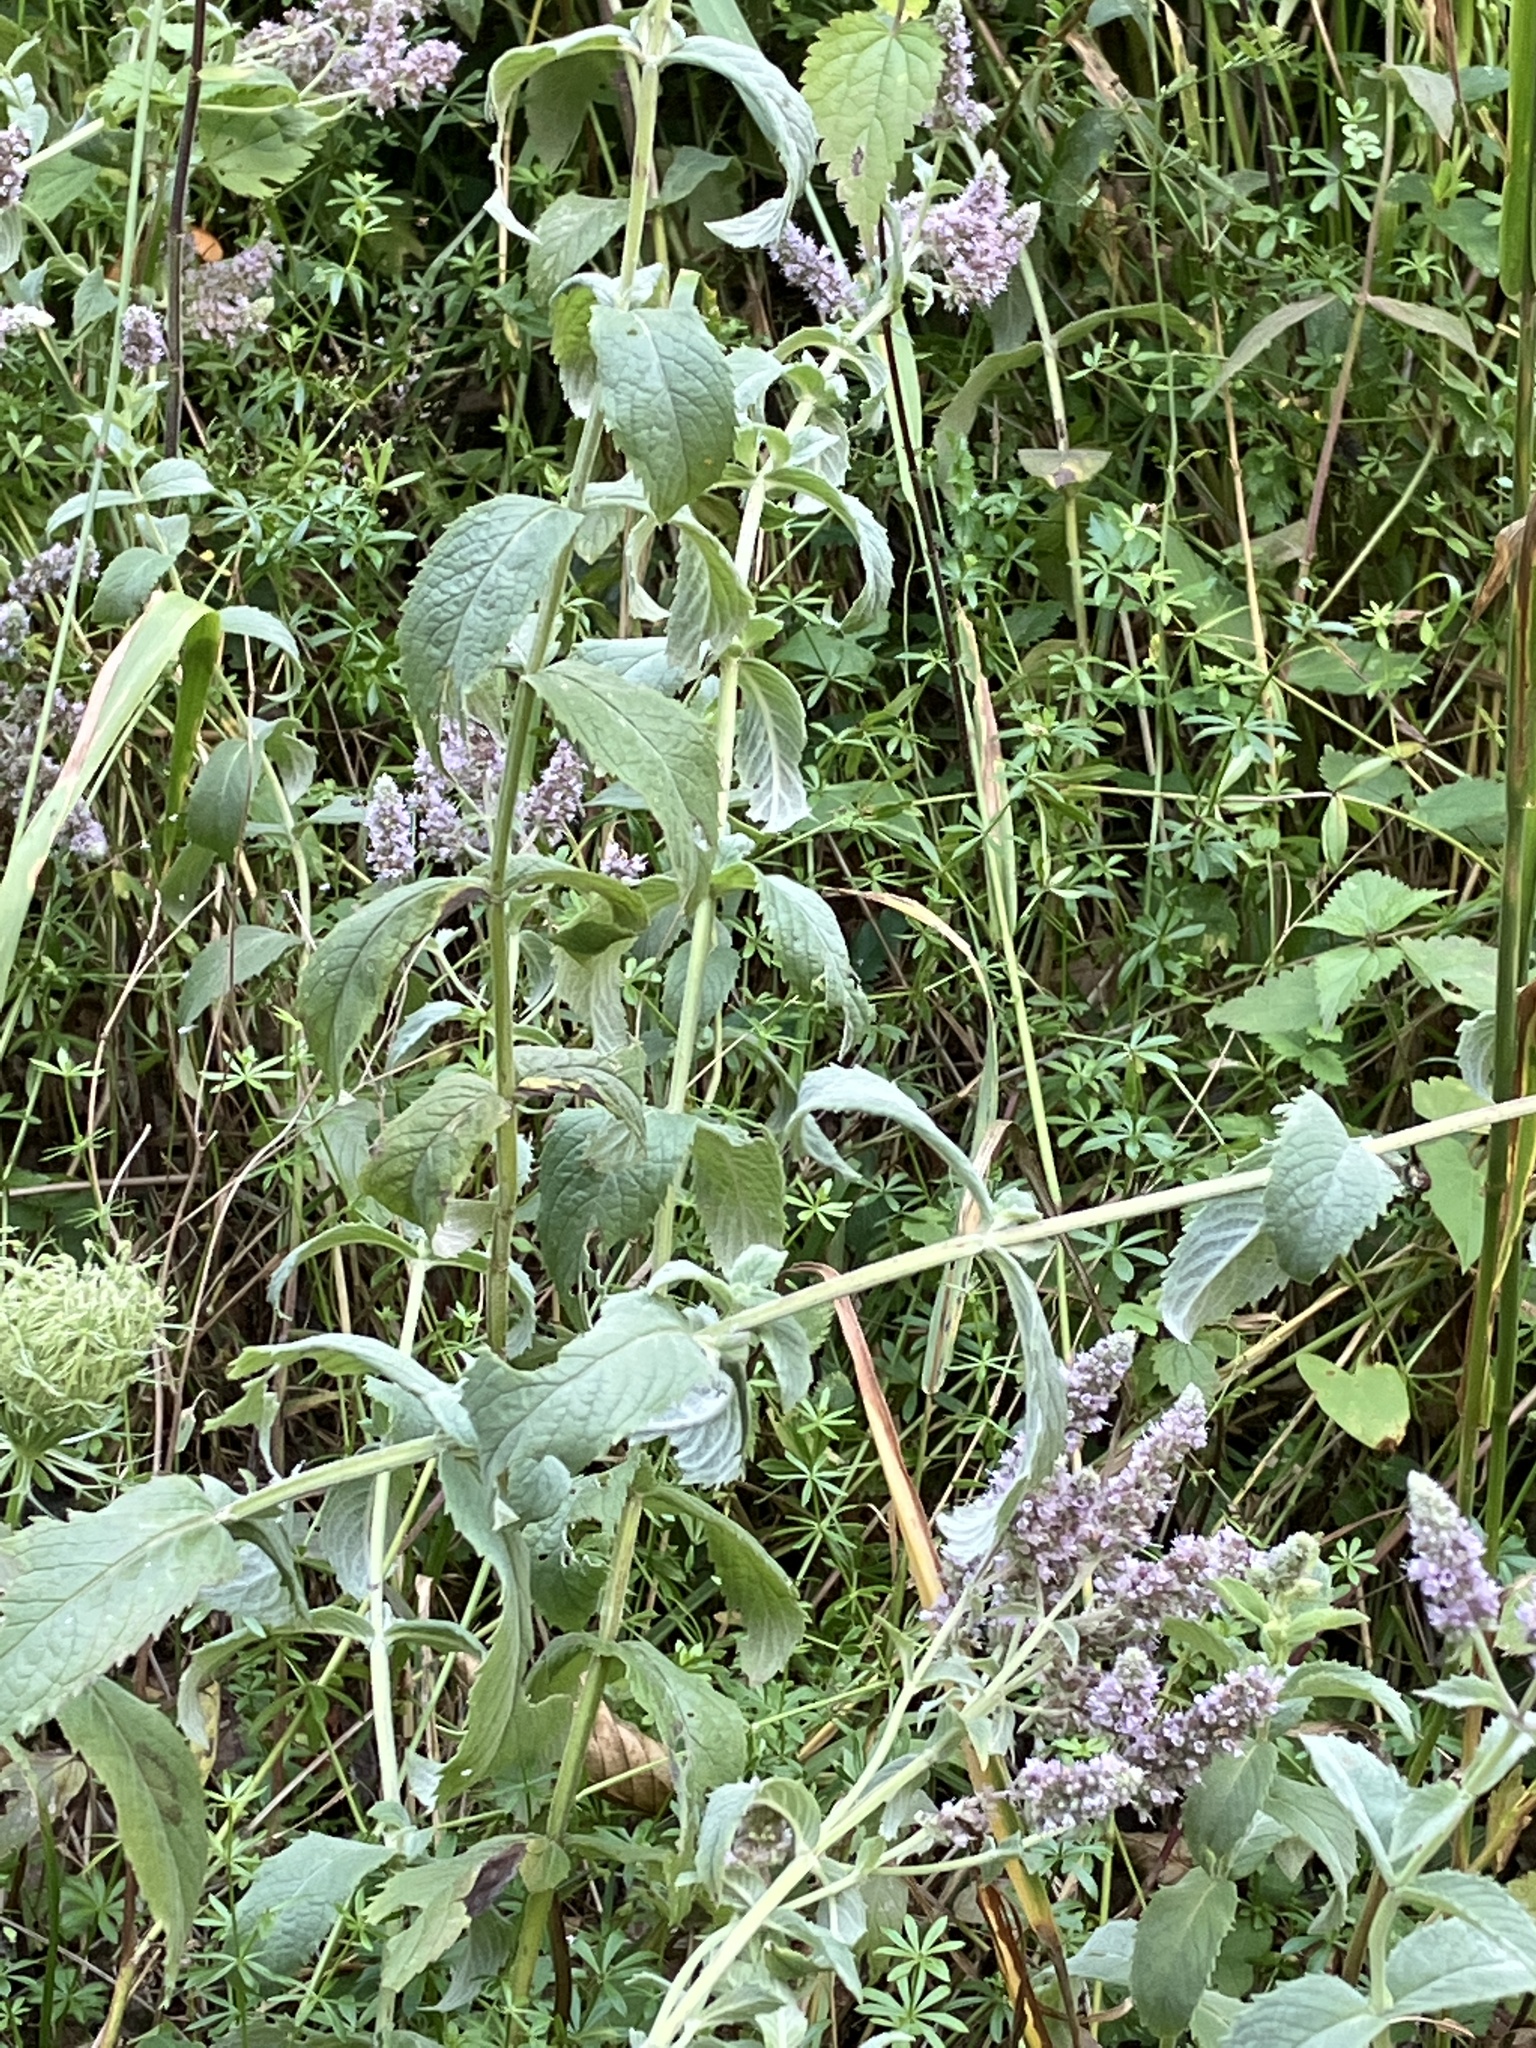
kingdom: Plantae
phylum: Tracheophyta
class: Magnoliopsida
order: Lamiales
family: Lamiaceae
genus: Mentha
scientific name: Mentha longifolia
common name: Horse mint
